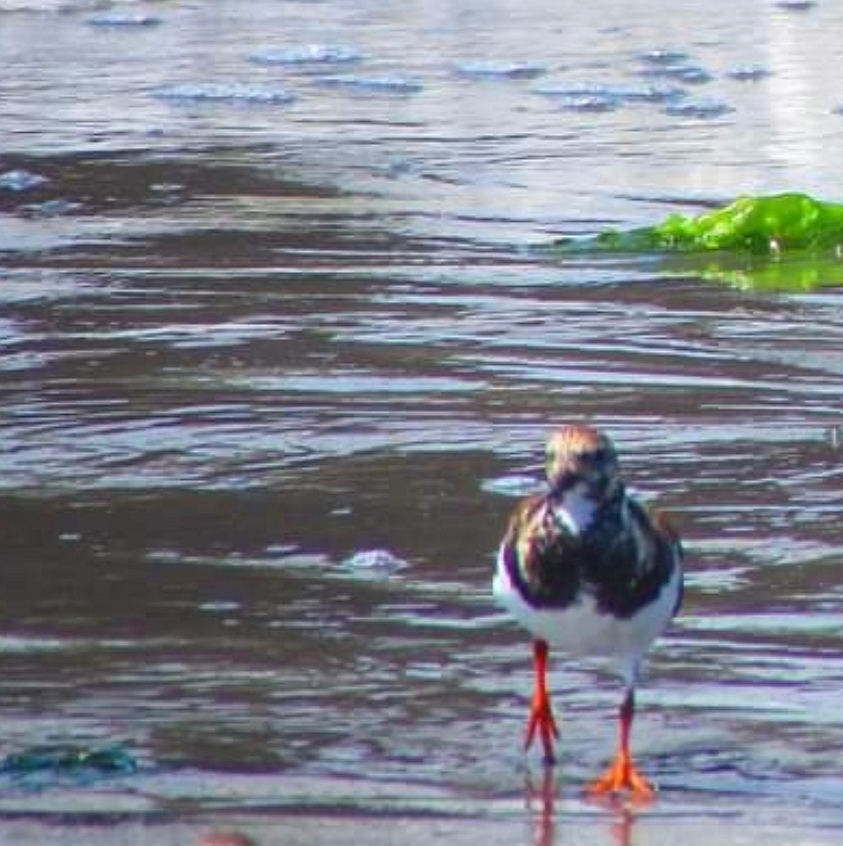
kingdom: Animalia
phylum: Chordata
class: Aves
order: Charadriiformes
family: Scolopacidae
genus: Arenaria
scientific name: Arenaria interpres
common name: Ruddy turnstone
